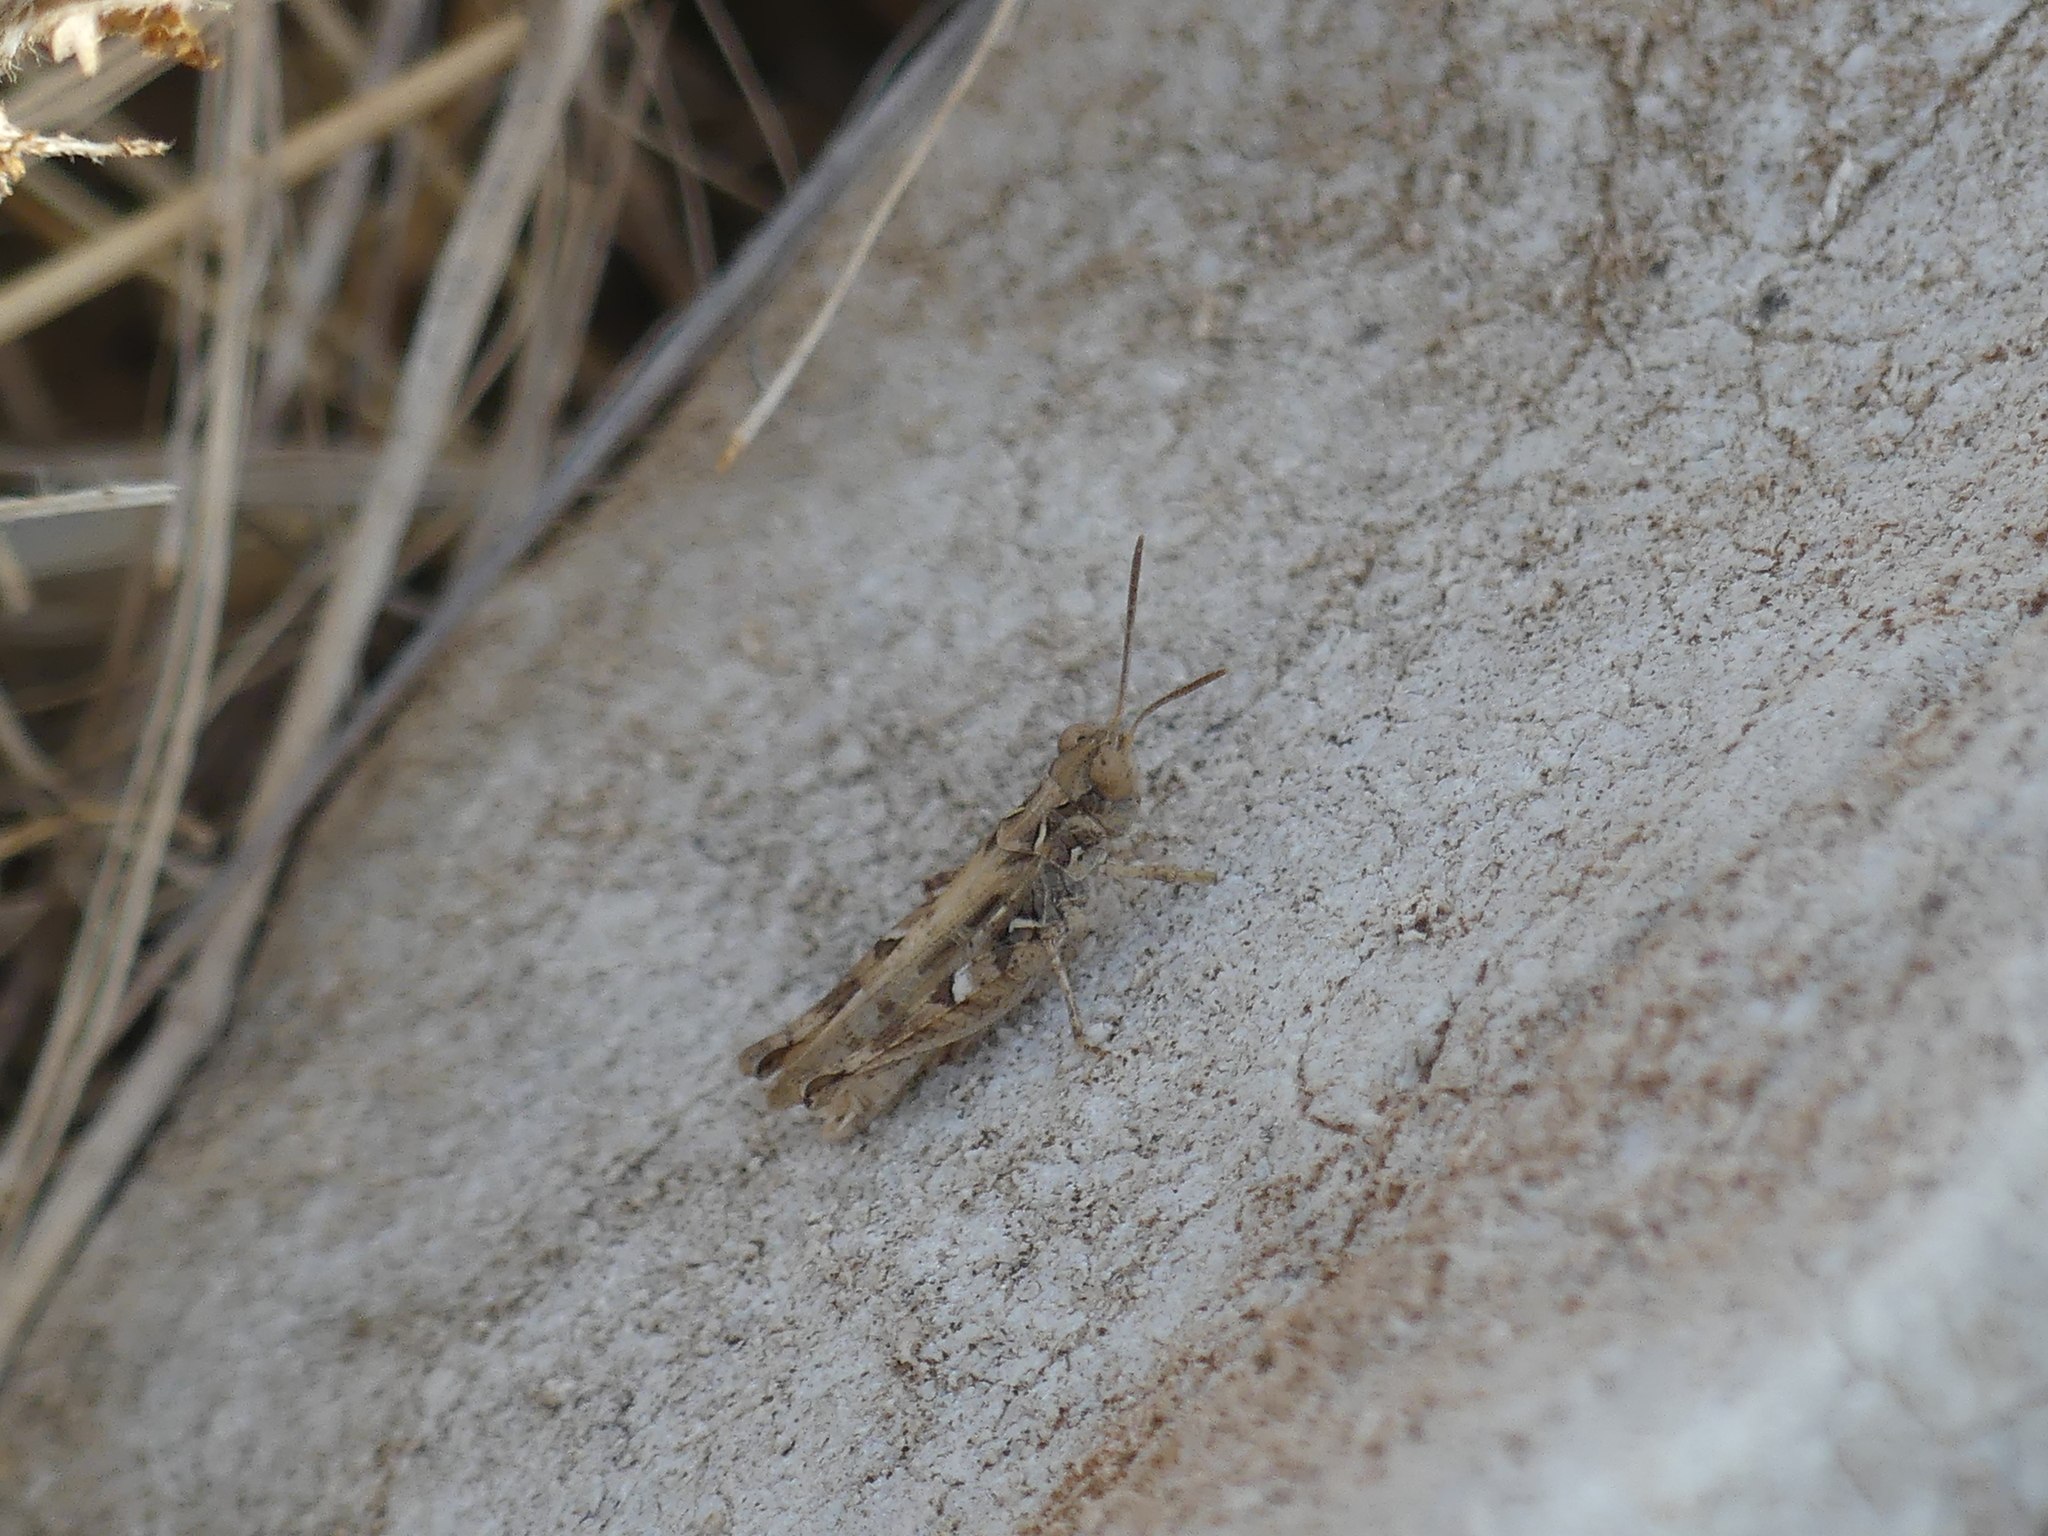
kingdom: Animalia
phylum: Arthropoda
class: Insecta
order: Orthoptera
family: Acrididae
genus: Dociostaurus
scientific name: Dociostaurus jagoi
